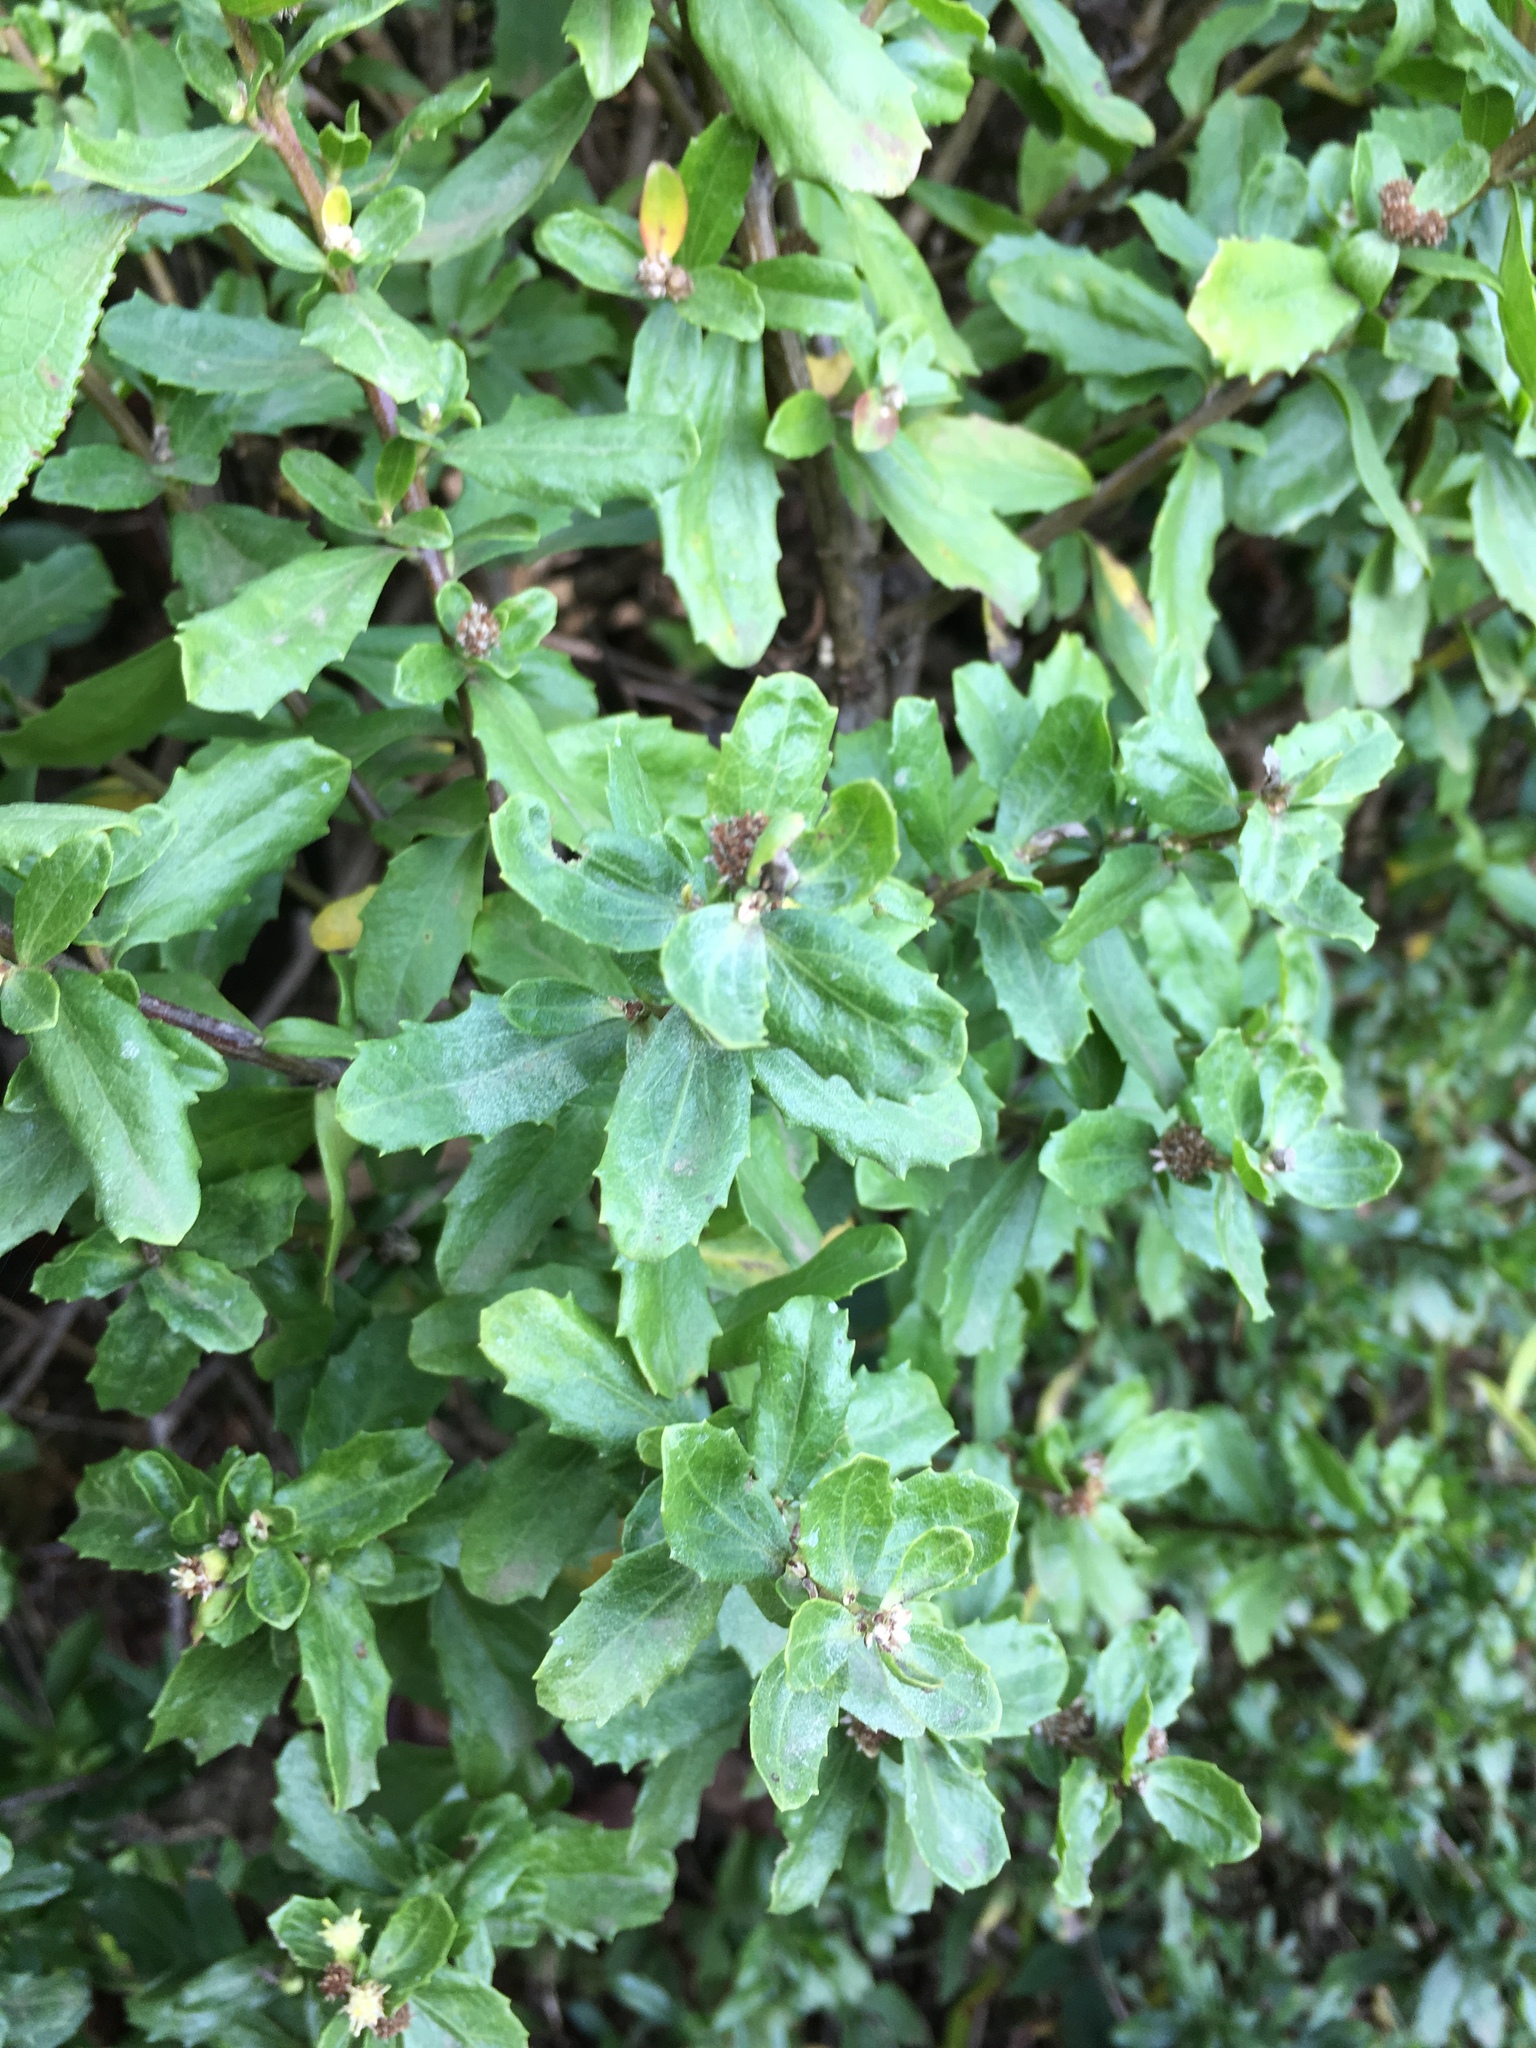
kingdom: Plantae
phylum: Tracheophyta
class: Magnoliopsida
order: Asterales
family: Asteraceae
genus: Baccharis
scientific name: Baccharis pilularis
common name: Coyotebrush
